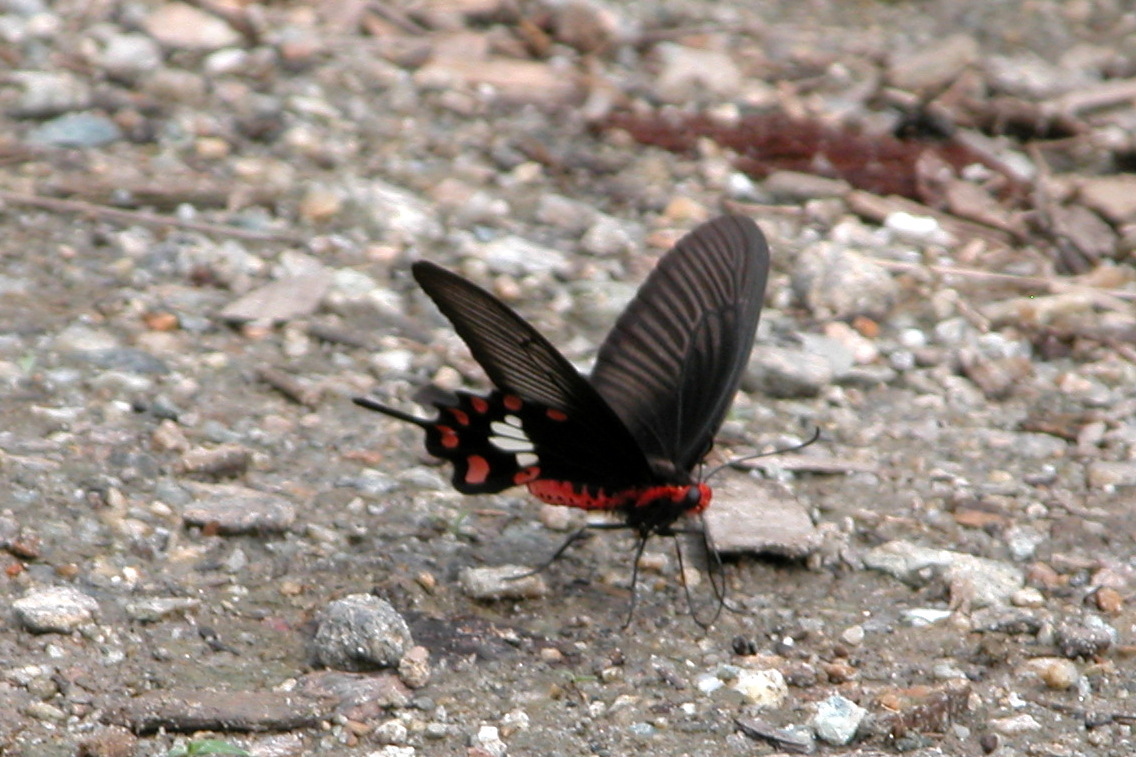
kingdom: Animalia
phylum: Arthropoda
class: Insecta
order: Lepidoptera
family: Papilionidae
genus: Pachliopta
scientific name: Pachliopta aristolochiae
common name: Common rose
